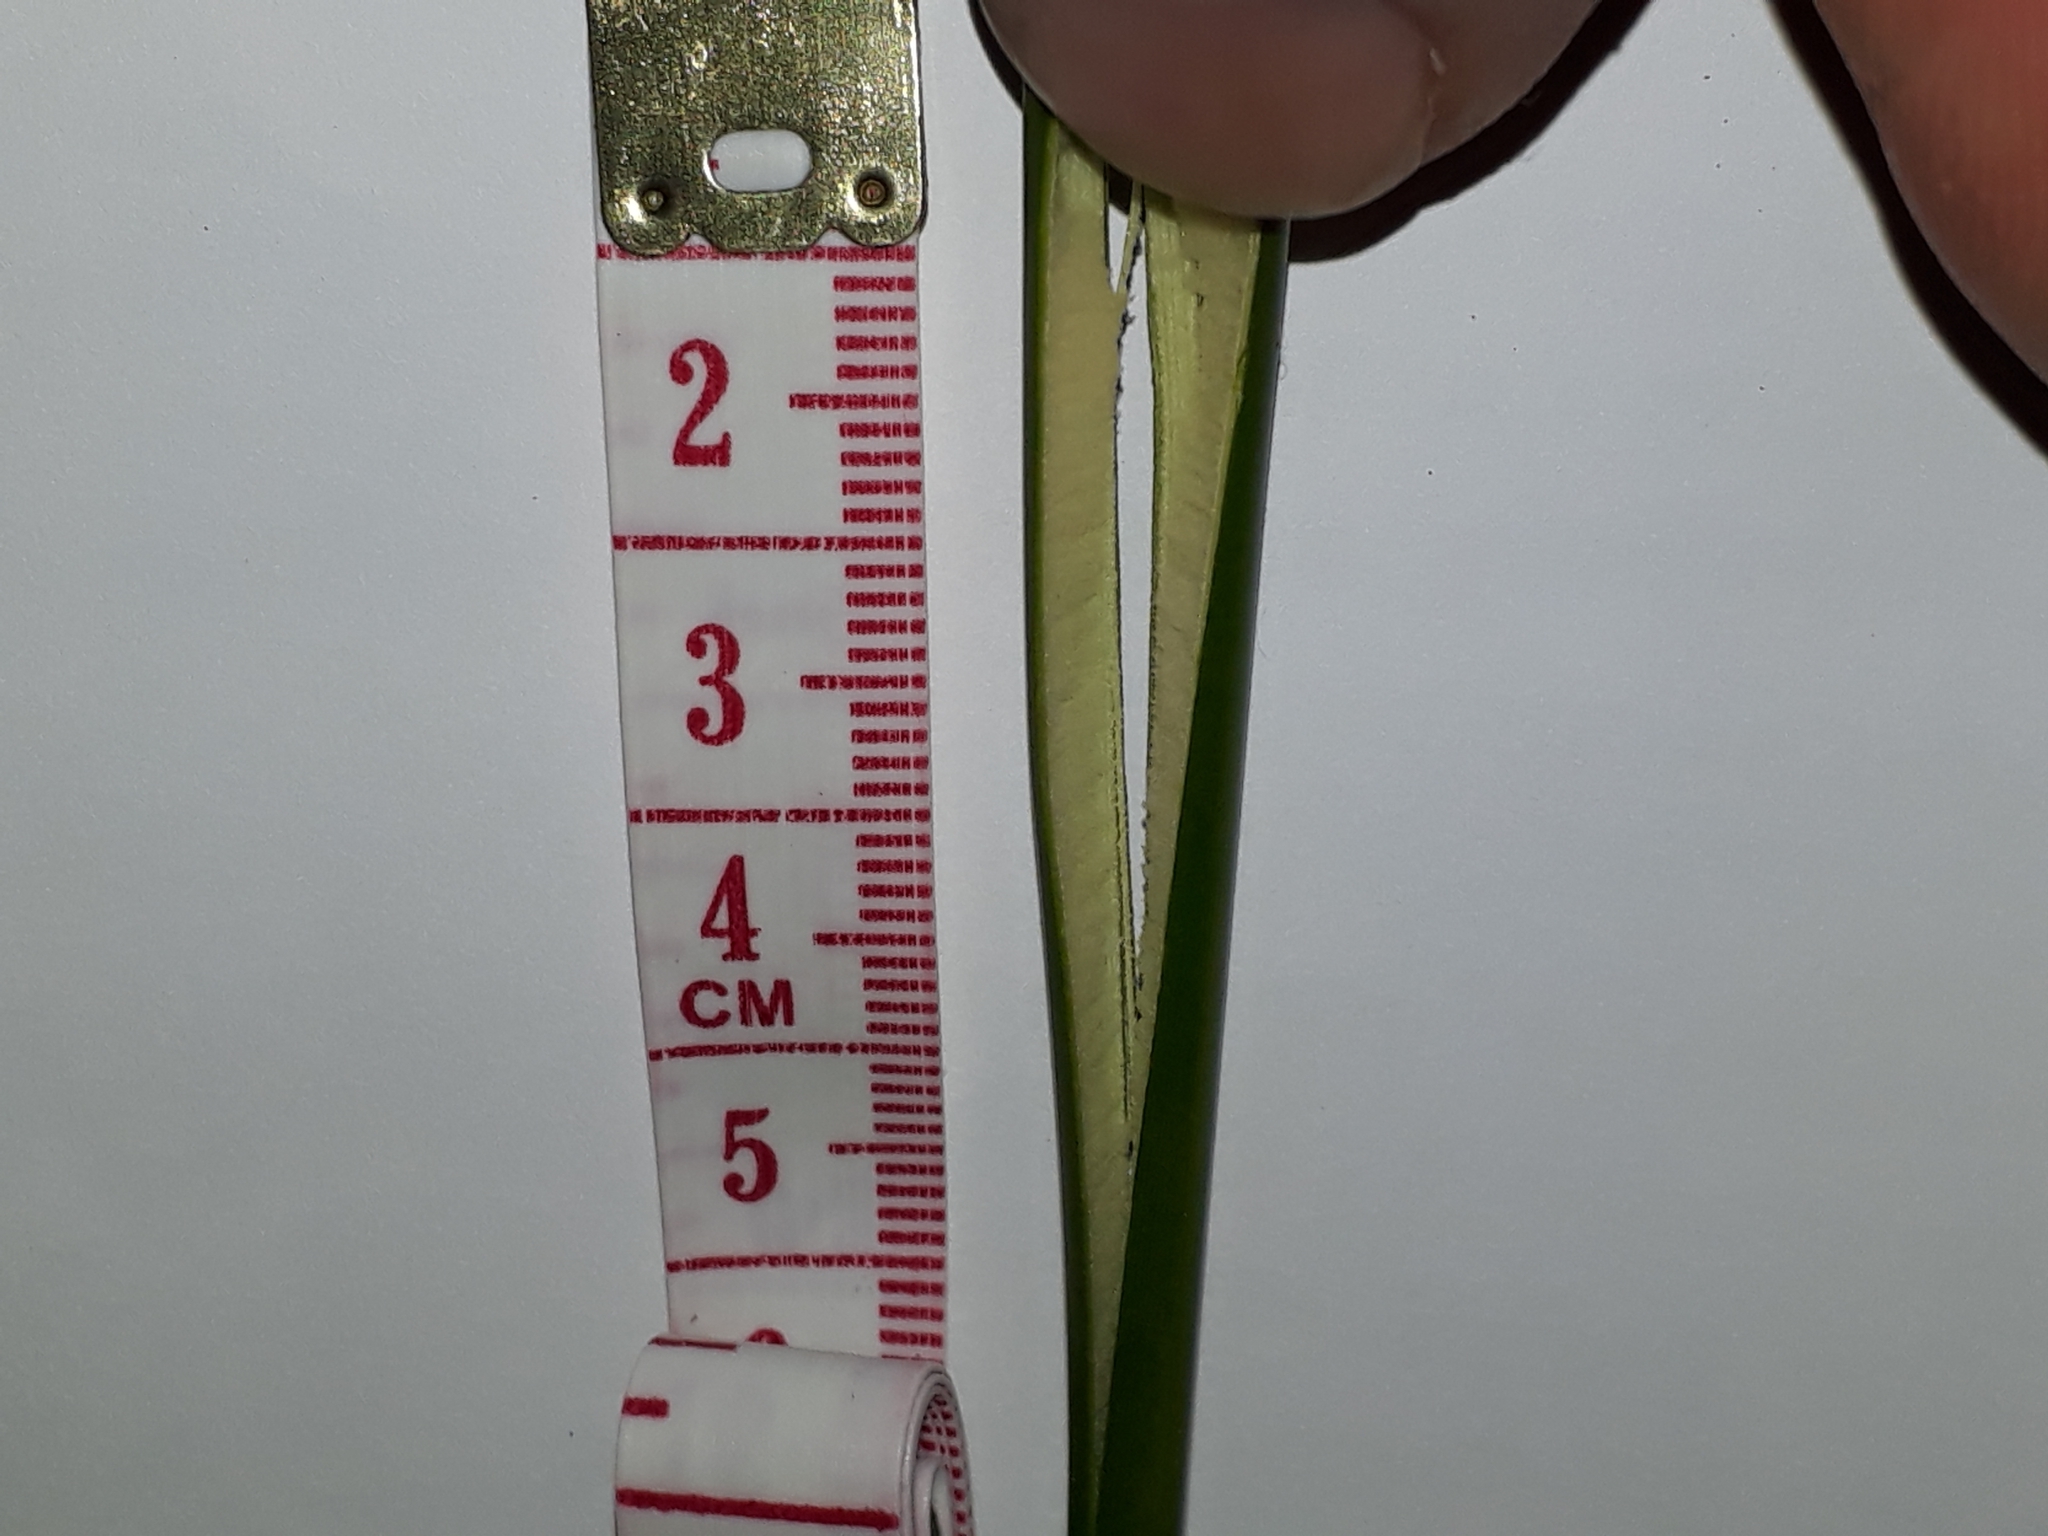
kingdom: Plantae
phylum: Tracheophyta
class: Liliopsida
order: Poales
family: Juncaceae
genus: Juncus
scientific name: Juncus pallidus
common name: Great soft-rush
